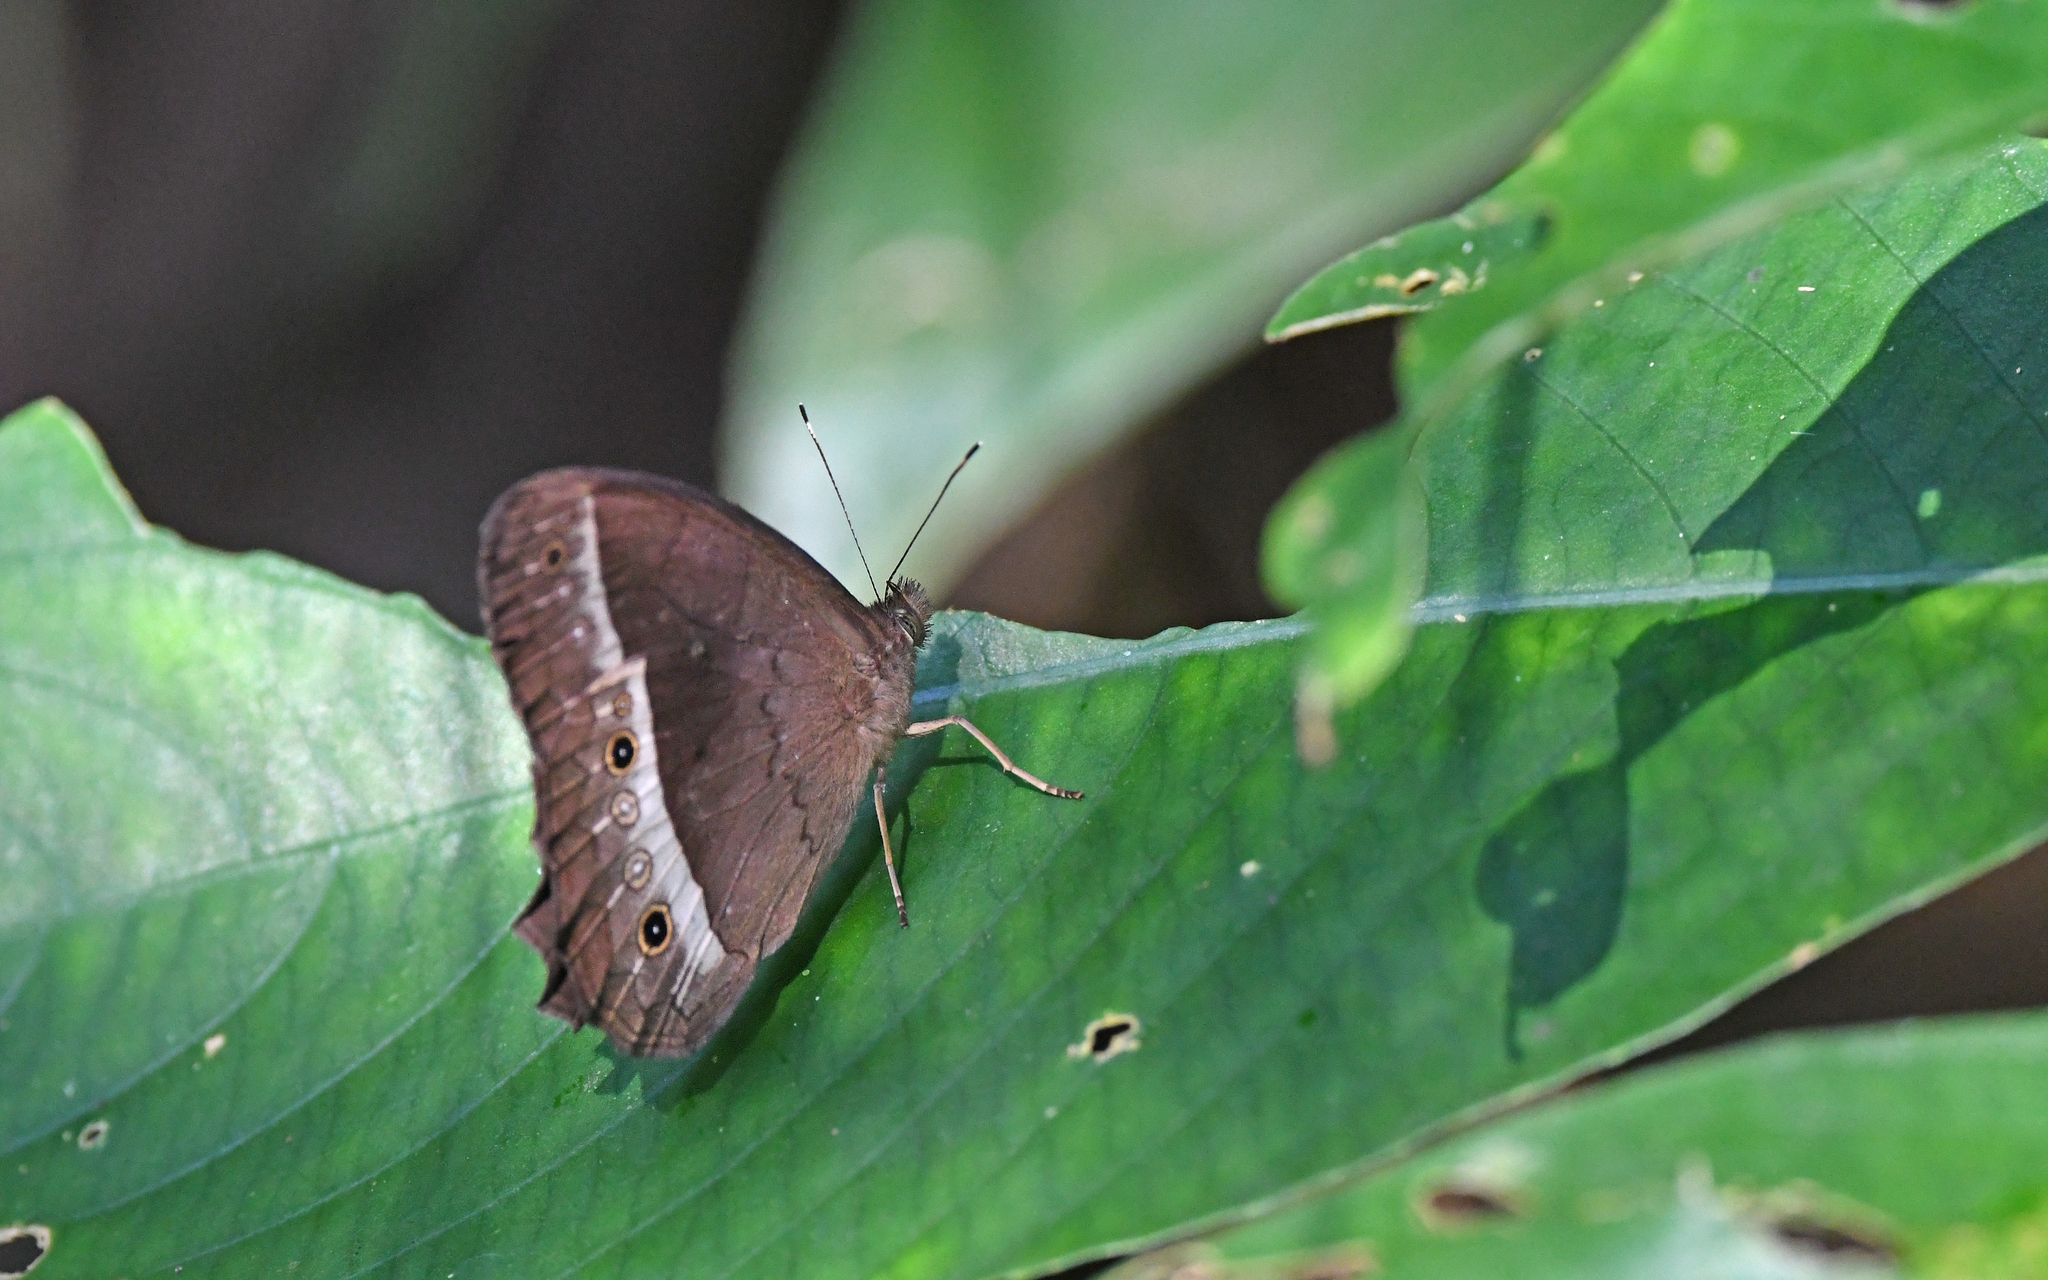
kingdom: Animalia
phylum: Arthropoda
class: Insecta
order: Lepidoptera
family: Nymphalidae
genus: Harjesia
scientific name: Harjesia blanda
